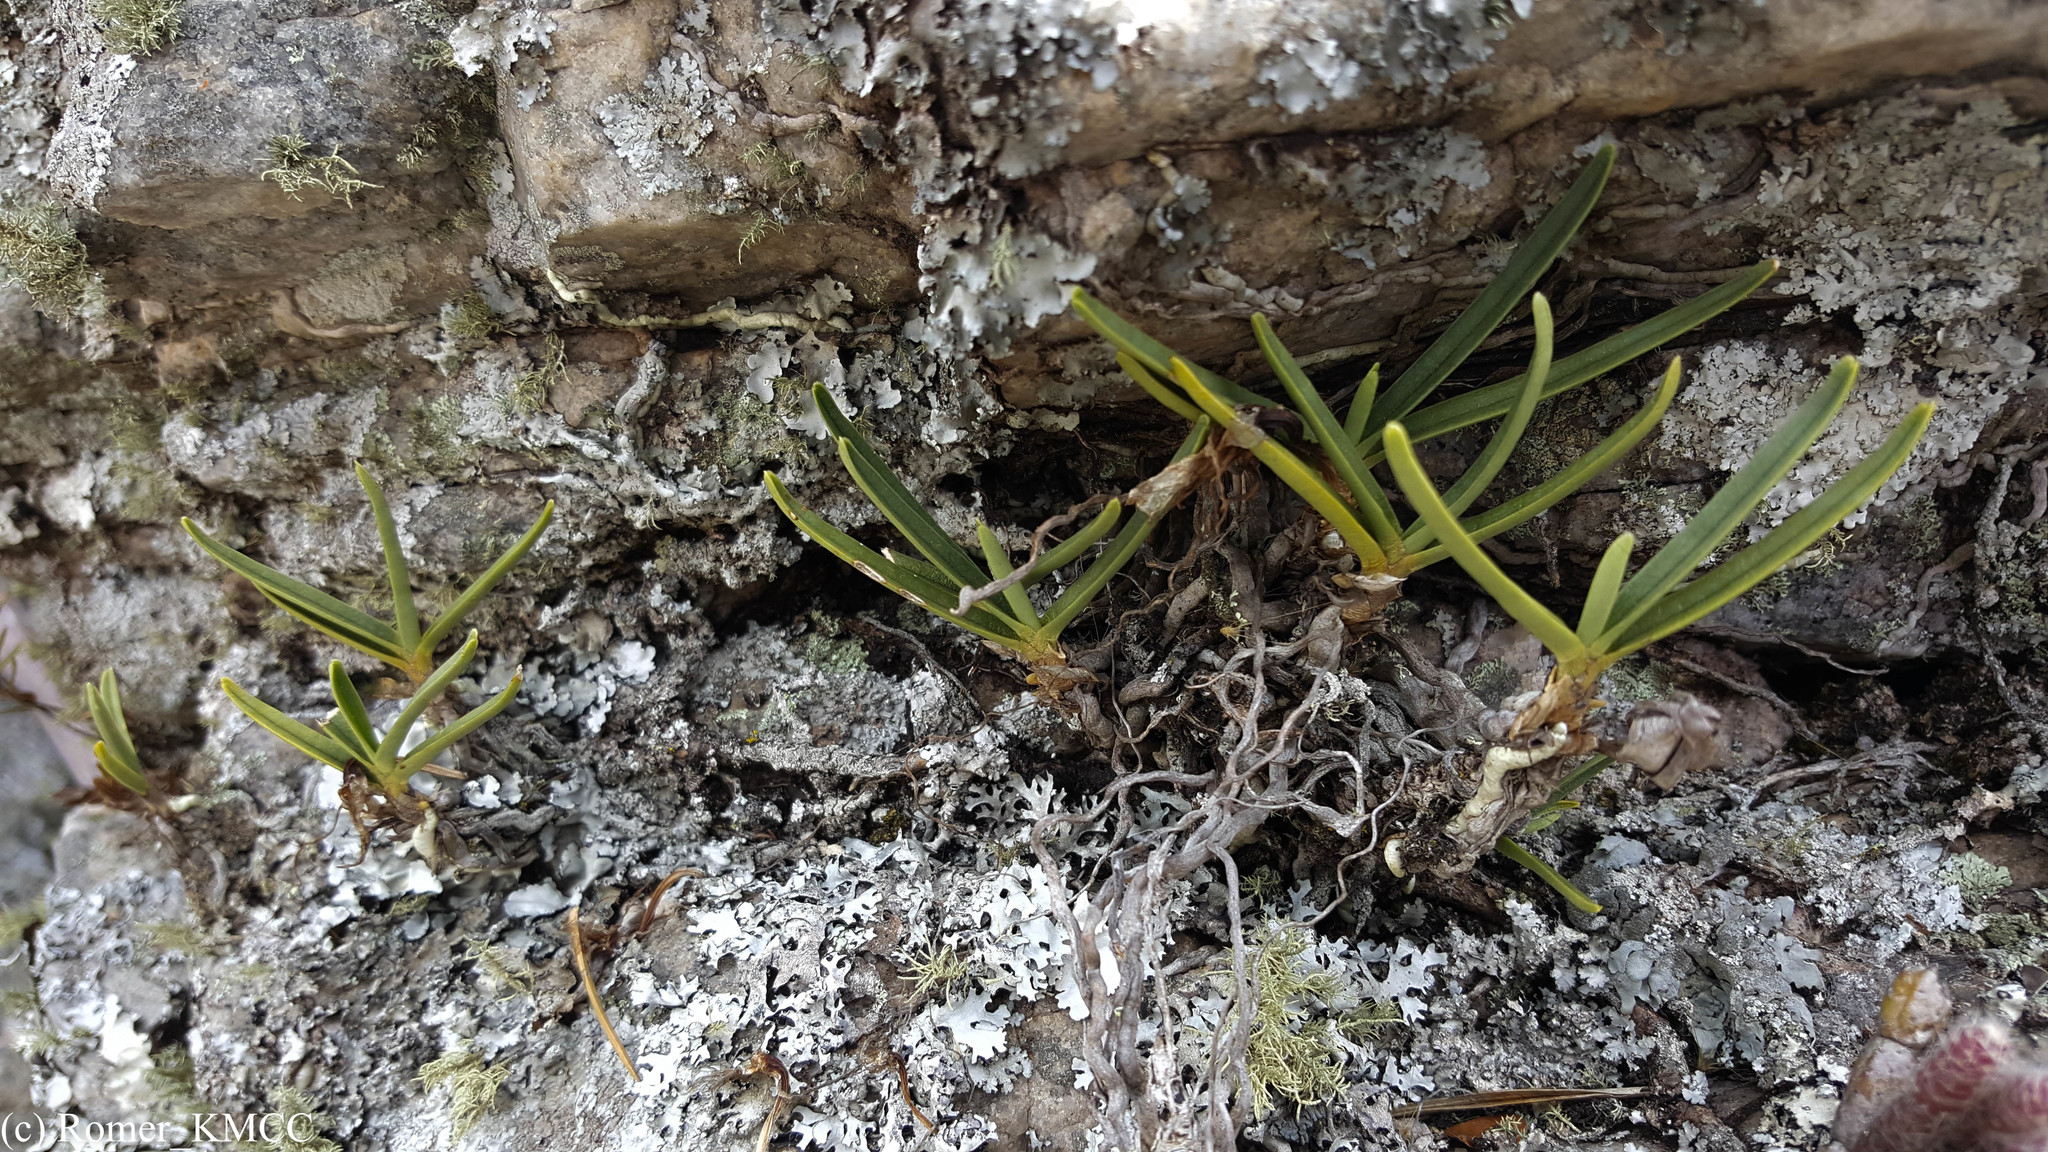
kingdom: Plantae
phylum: Tracheophyta
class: Liliopsida
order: Asparagales
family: Orchidaceae
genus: Angraecum
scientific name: Angraecum rutenbergianum
